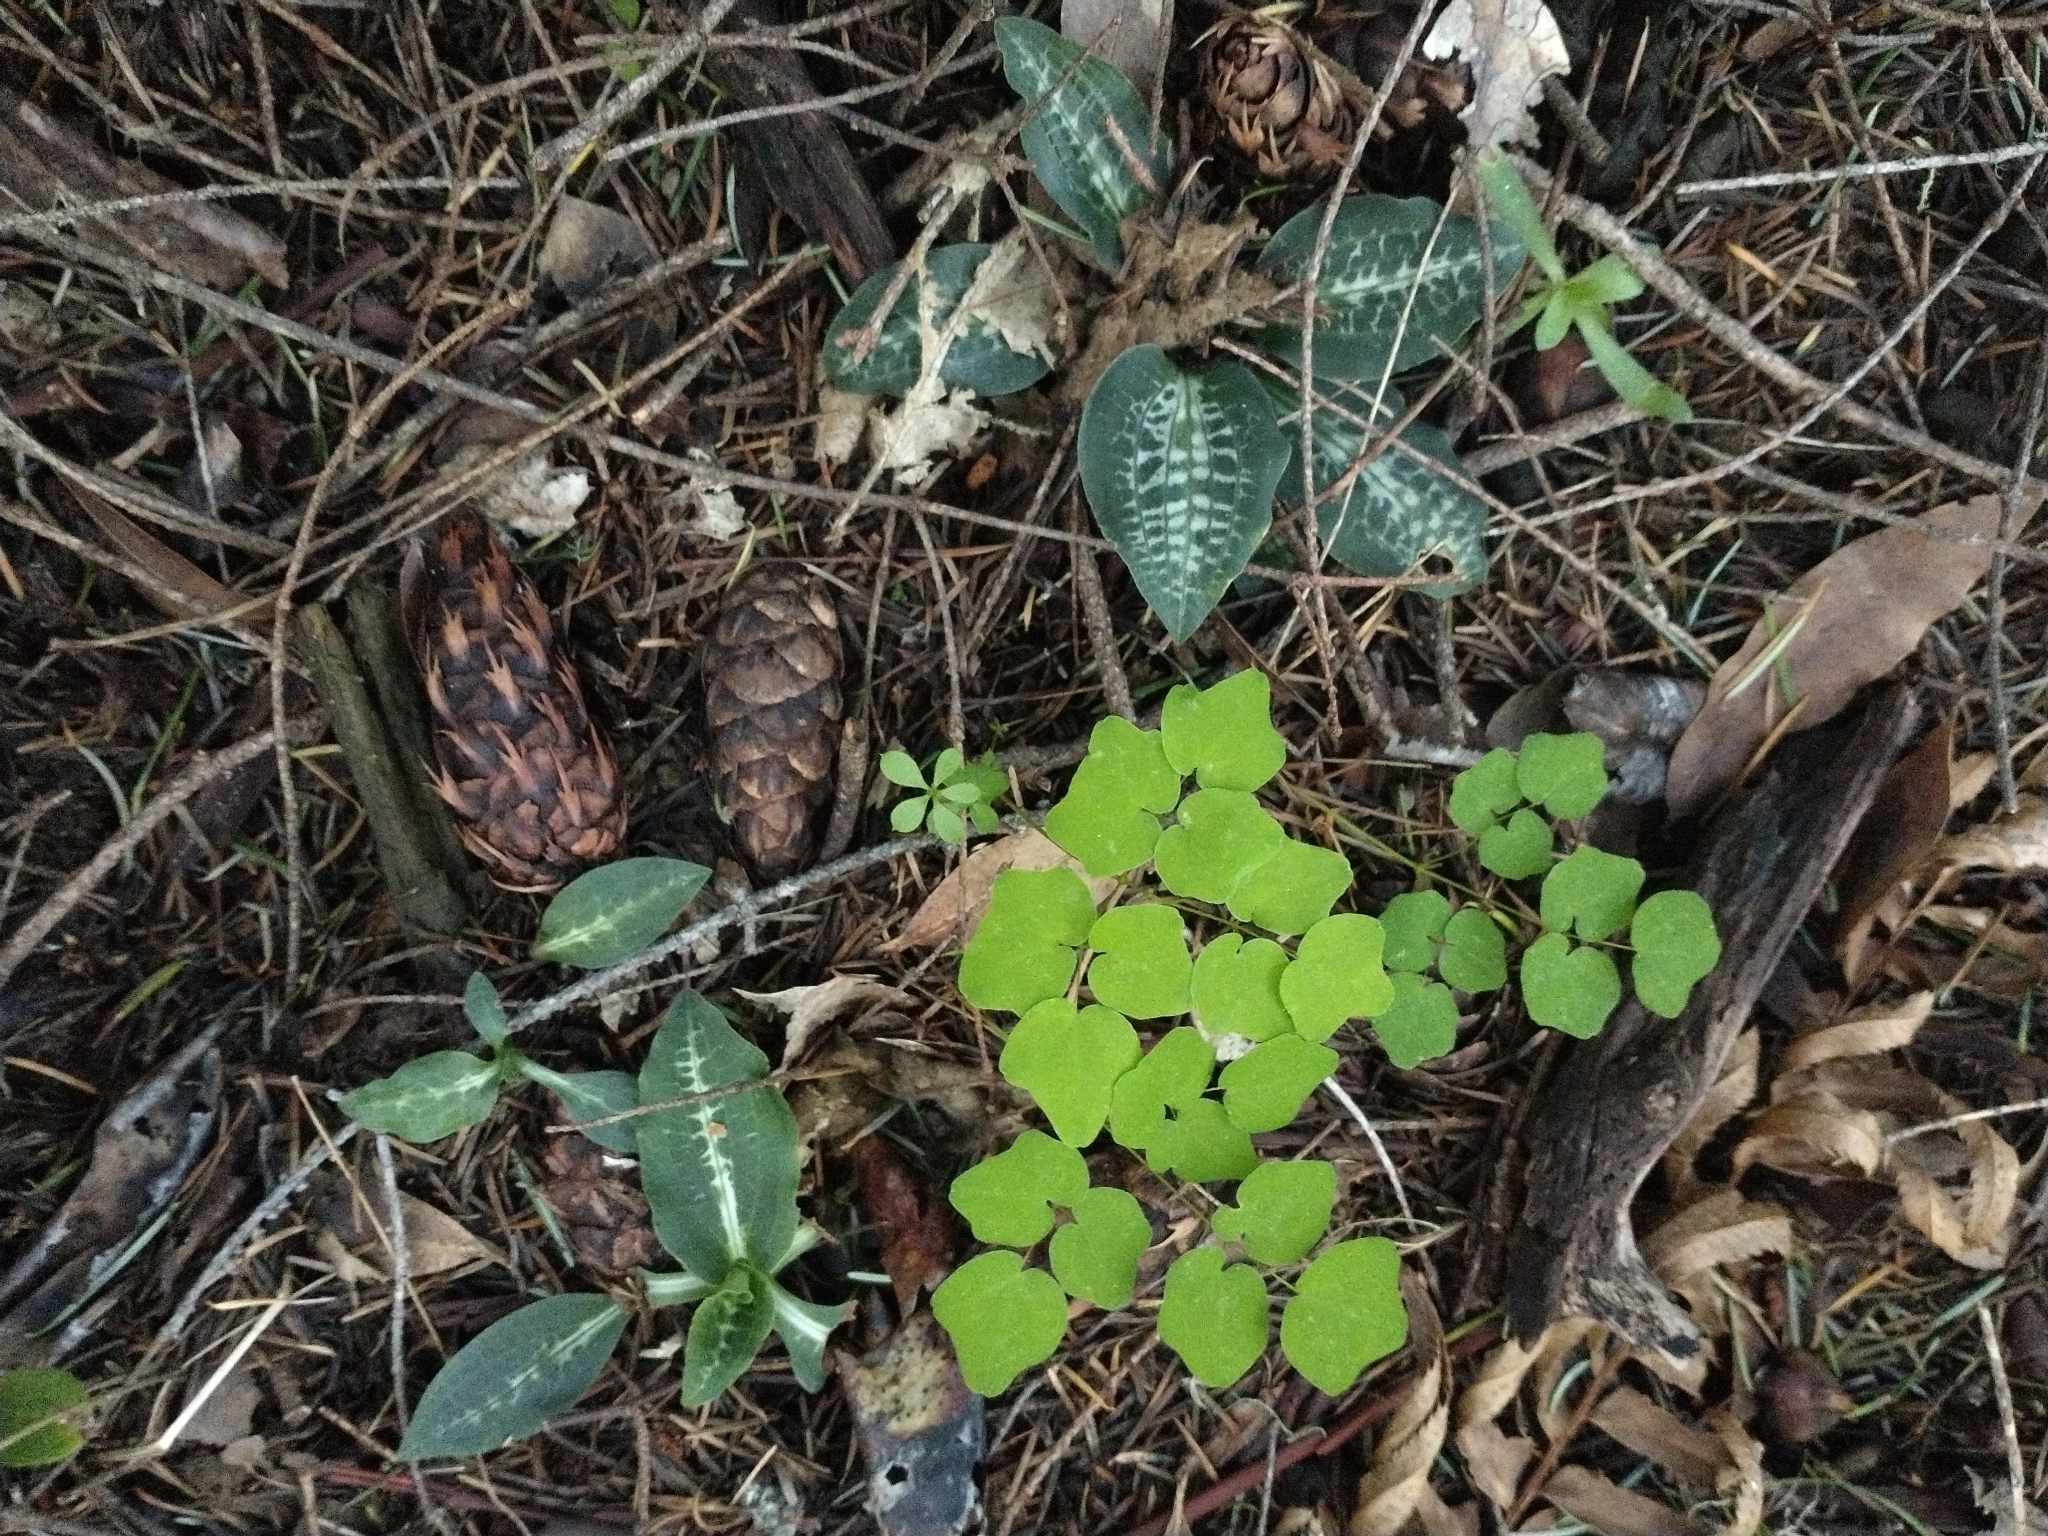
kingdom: Plantae
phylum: Tracheophyta
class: Liliopsida
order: Asparagales
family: Orchidaceae
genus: Goodyera
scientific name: Goodyera oblongifolia
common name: Giant rattlesnake-plantain
